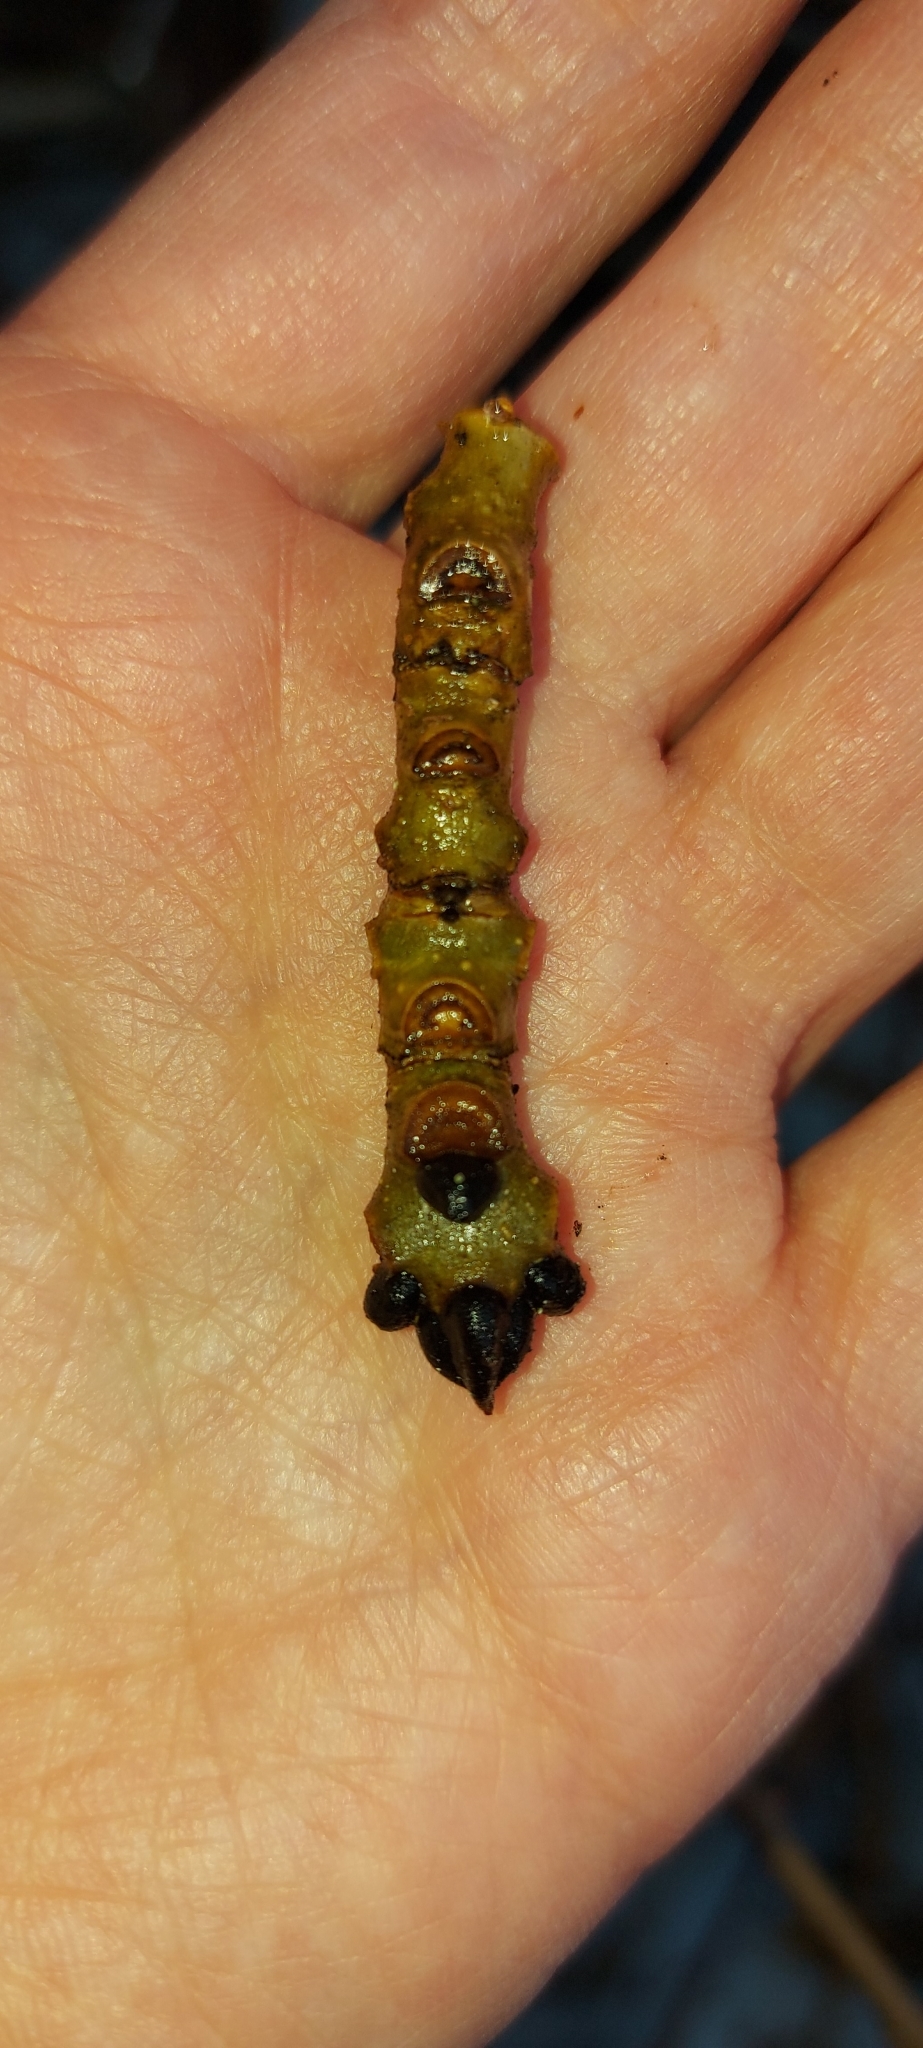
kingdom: Plantae
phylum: Tracheophyta
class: Magnoliopsida
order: Lamiales
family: Oleaceae
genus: Fraxinus
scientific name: Fraxinus excelsior
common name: European ash
